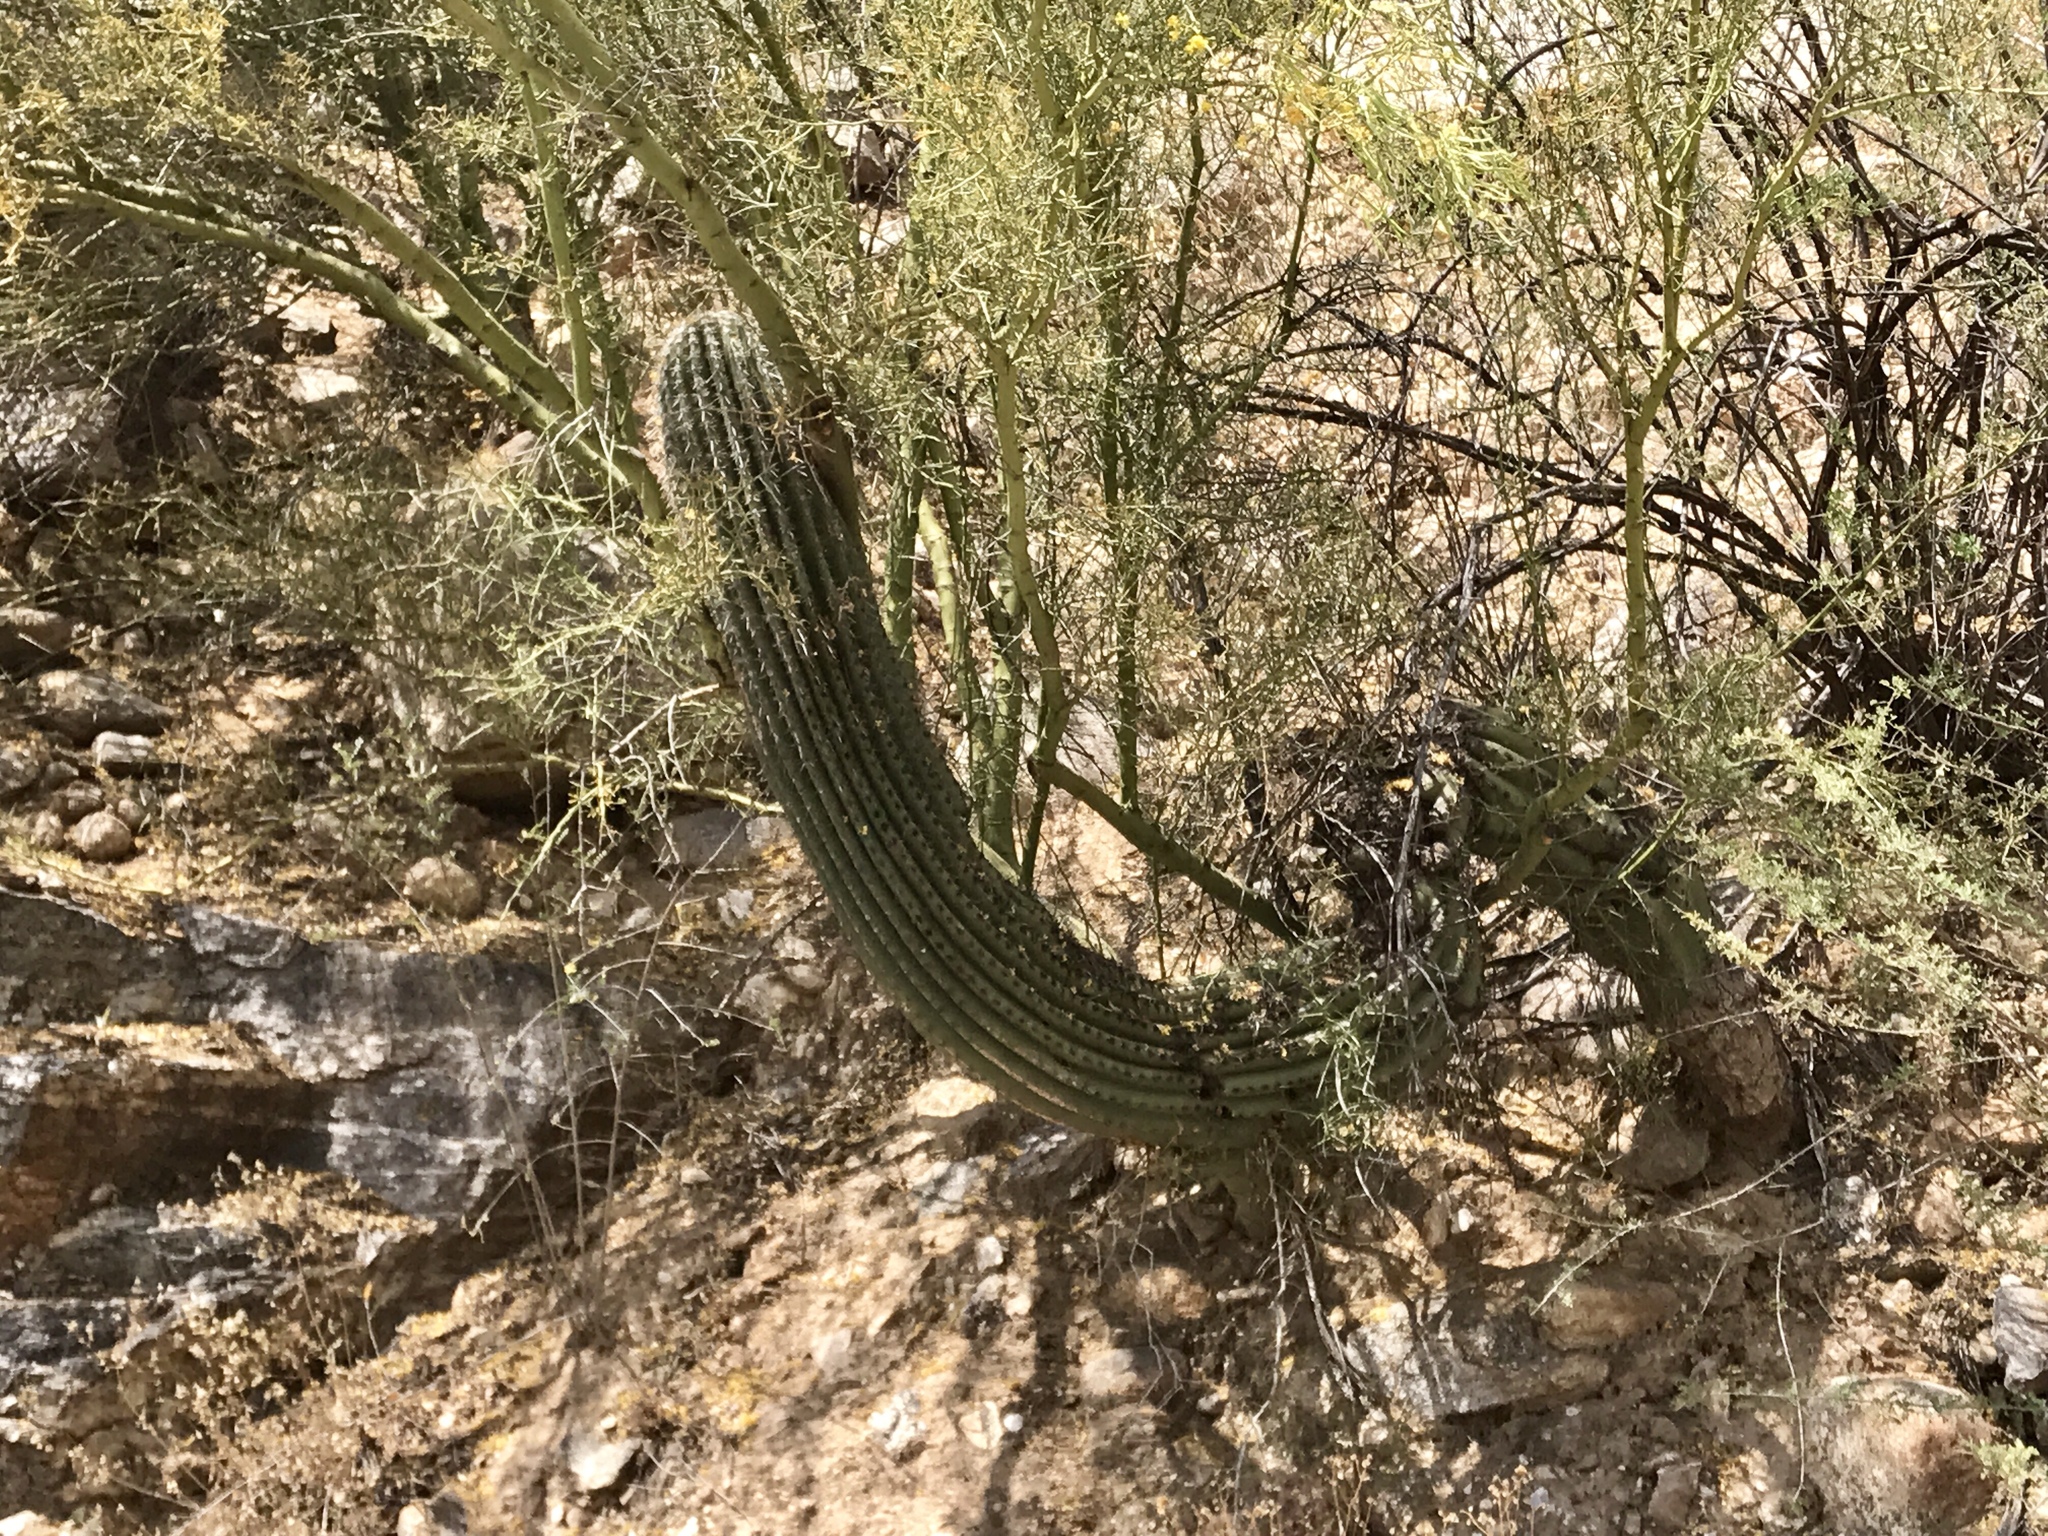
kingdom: Plantae
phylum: Tracheophyta
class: Magnoliopsida
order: Caryophyllales
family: Cactaceae
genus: Carnegiea
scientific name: Carnegiea gigantea
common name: Saguaro
